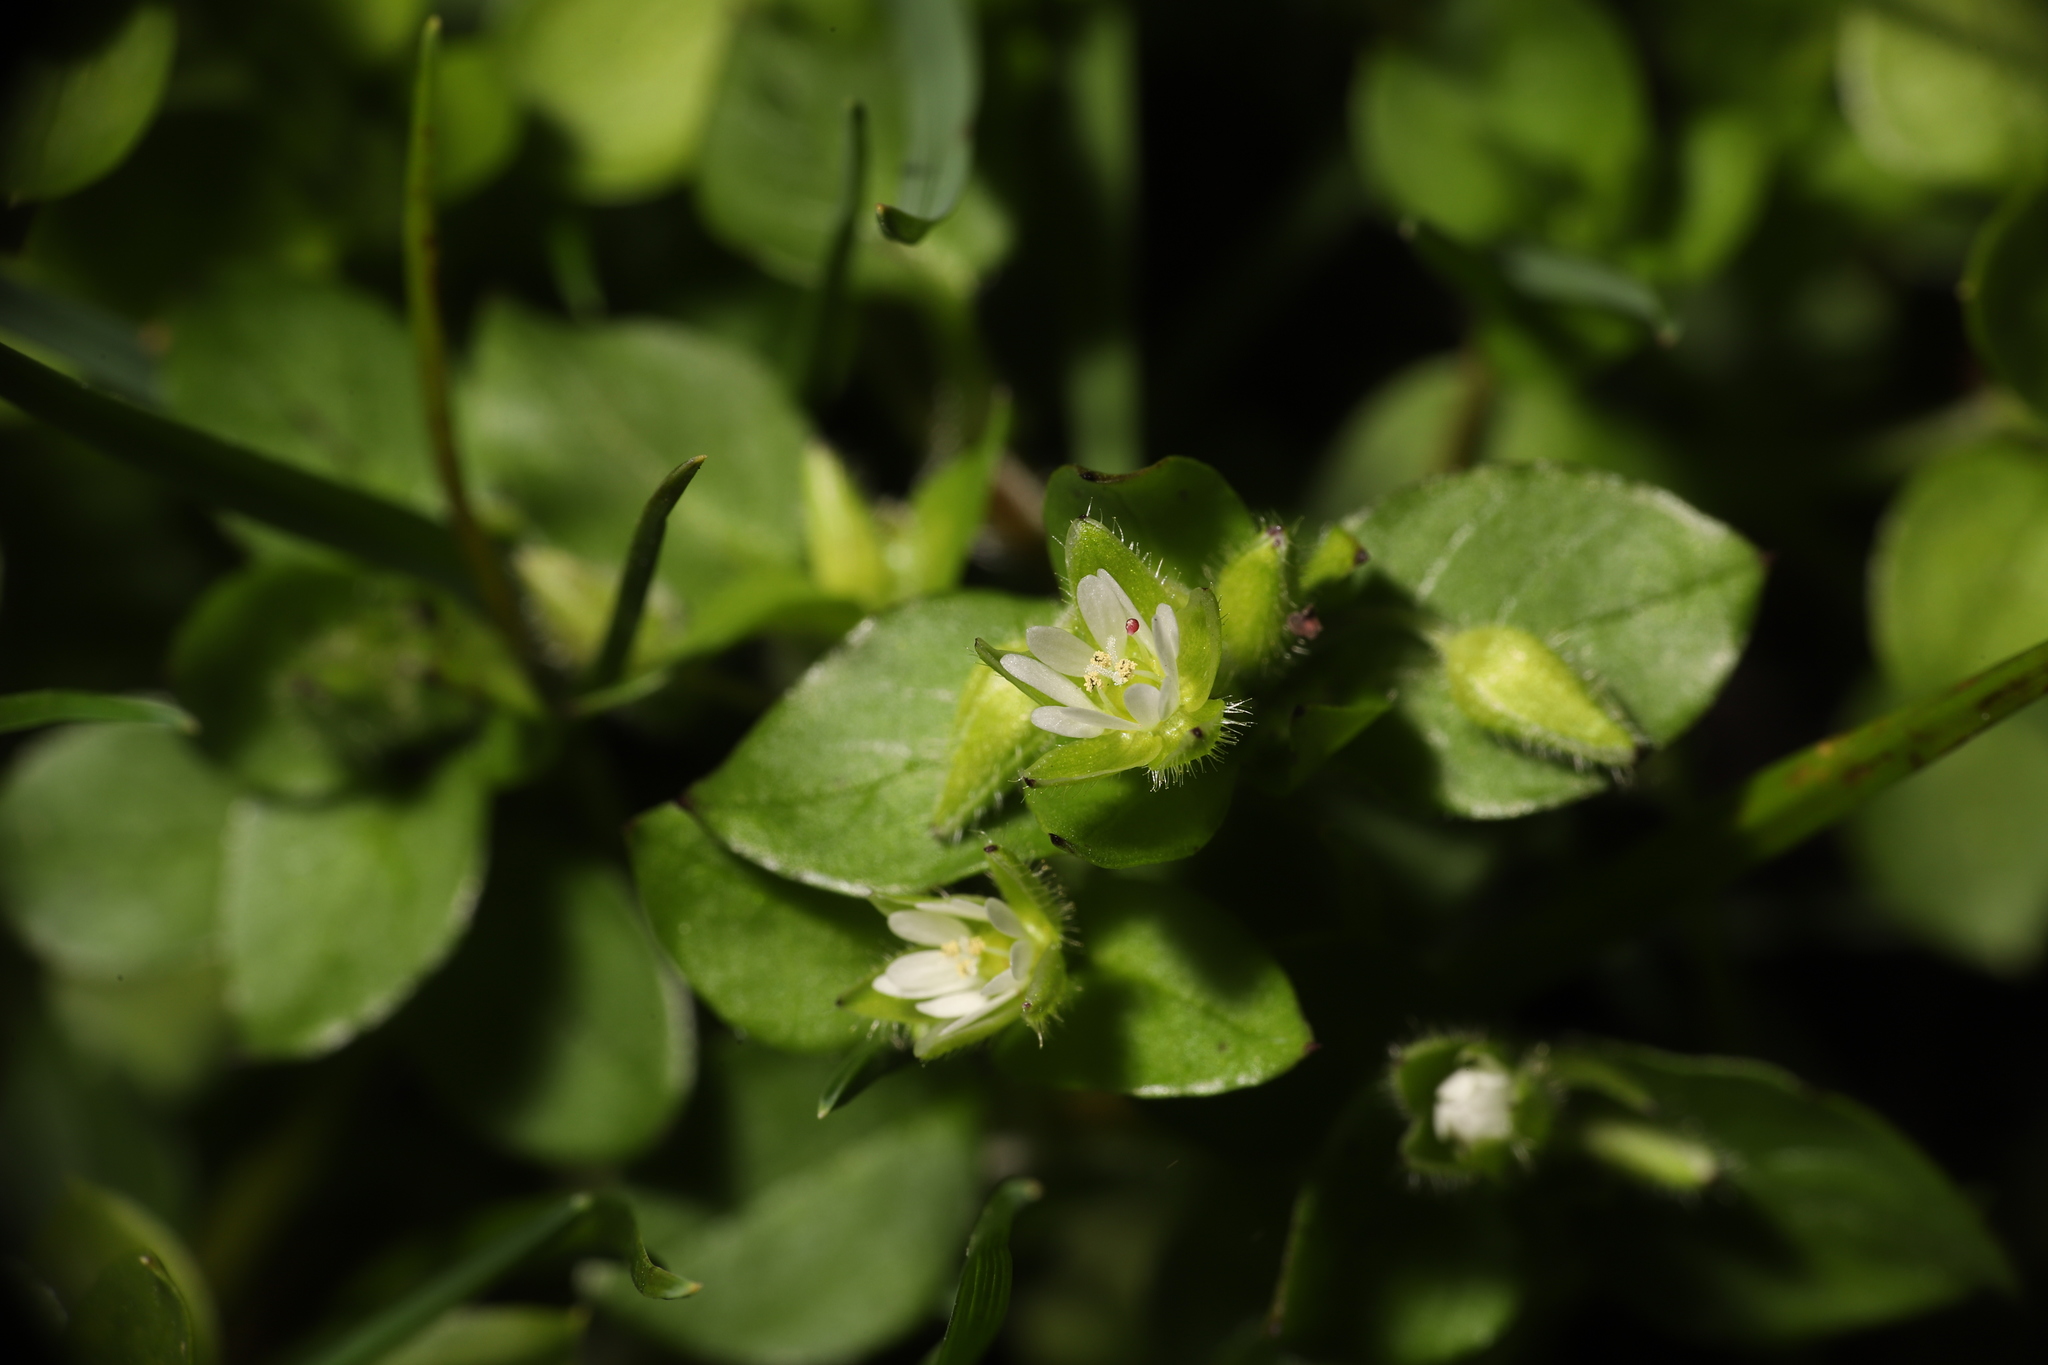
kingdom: Plantae
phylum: Tracheophyta
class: Magnoliopsida
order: Caryophyllales
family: Caryophyllaceae
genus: Stellaria
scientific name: Stellaria media
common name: Common chickweed
